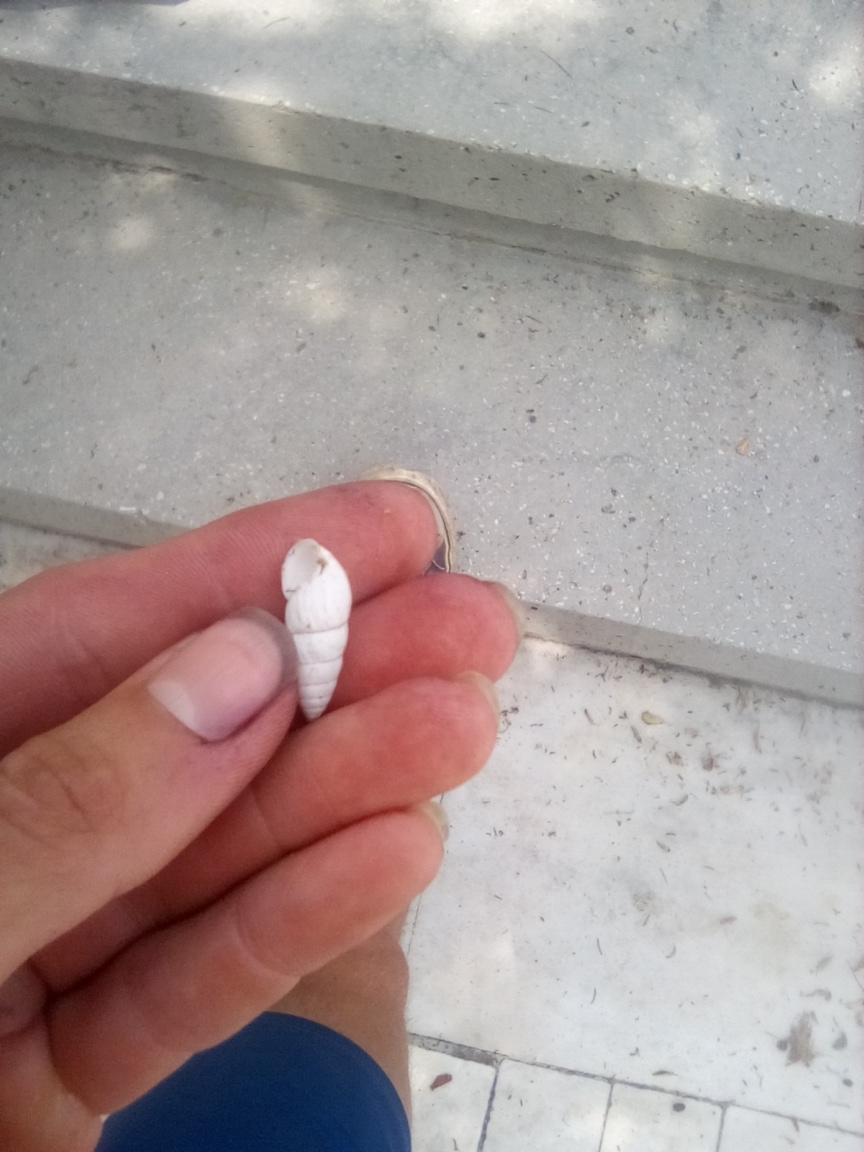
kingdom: Animalia
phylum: Mollusca
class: Gastropoda
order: Stylommatophora
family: Enidae
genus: Brephulopsis
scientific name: Brephulopsis cylindrica
